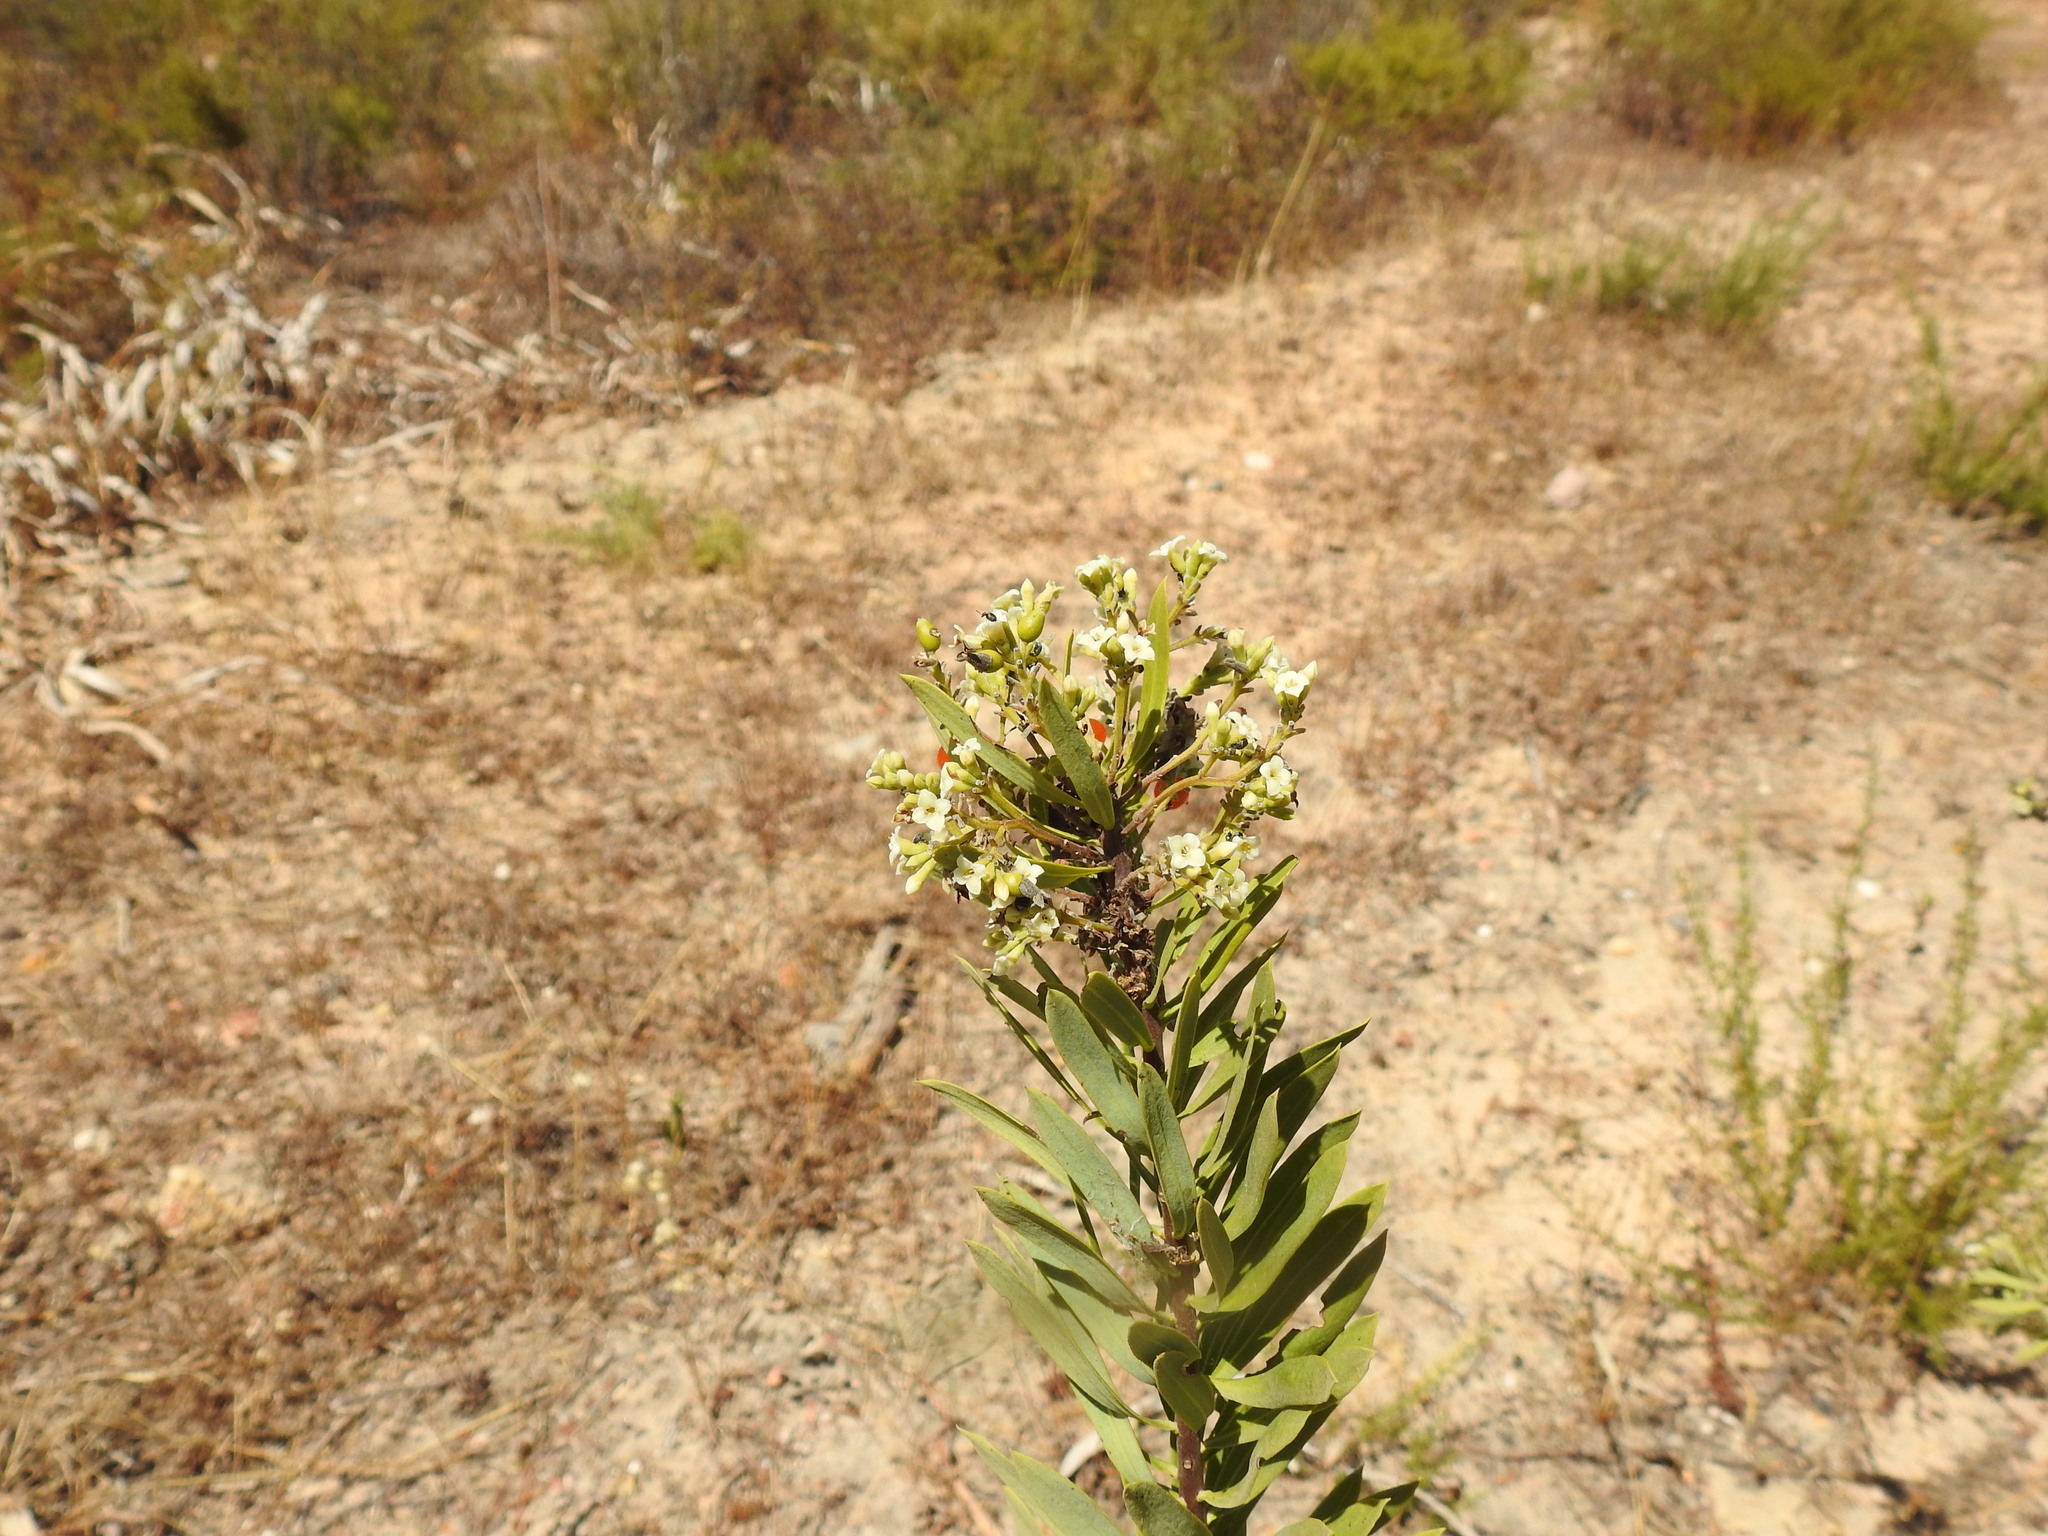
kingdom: Plantae
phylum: Tracheophyta
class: Magnoliopsida
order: Malvales
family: Thymelaeaceae
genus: Daphne
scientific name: Daphne gnidium
